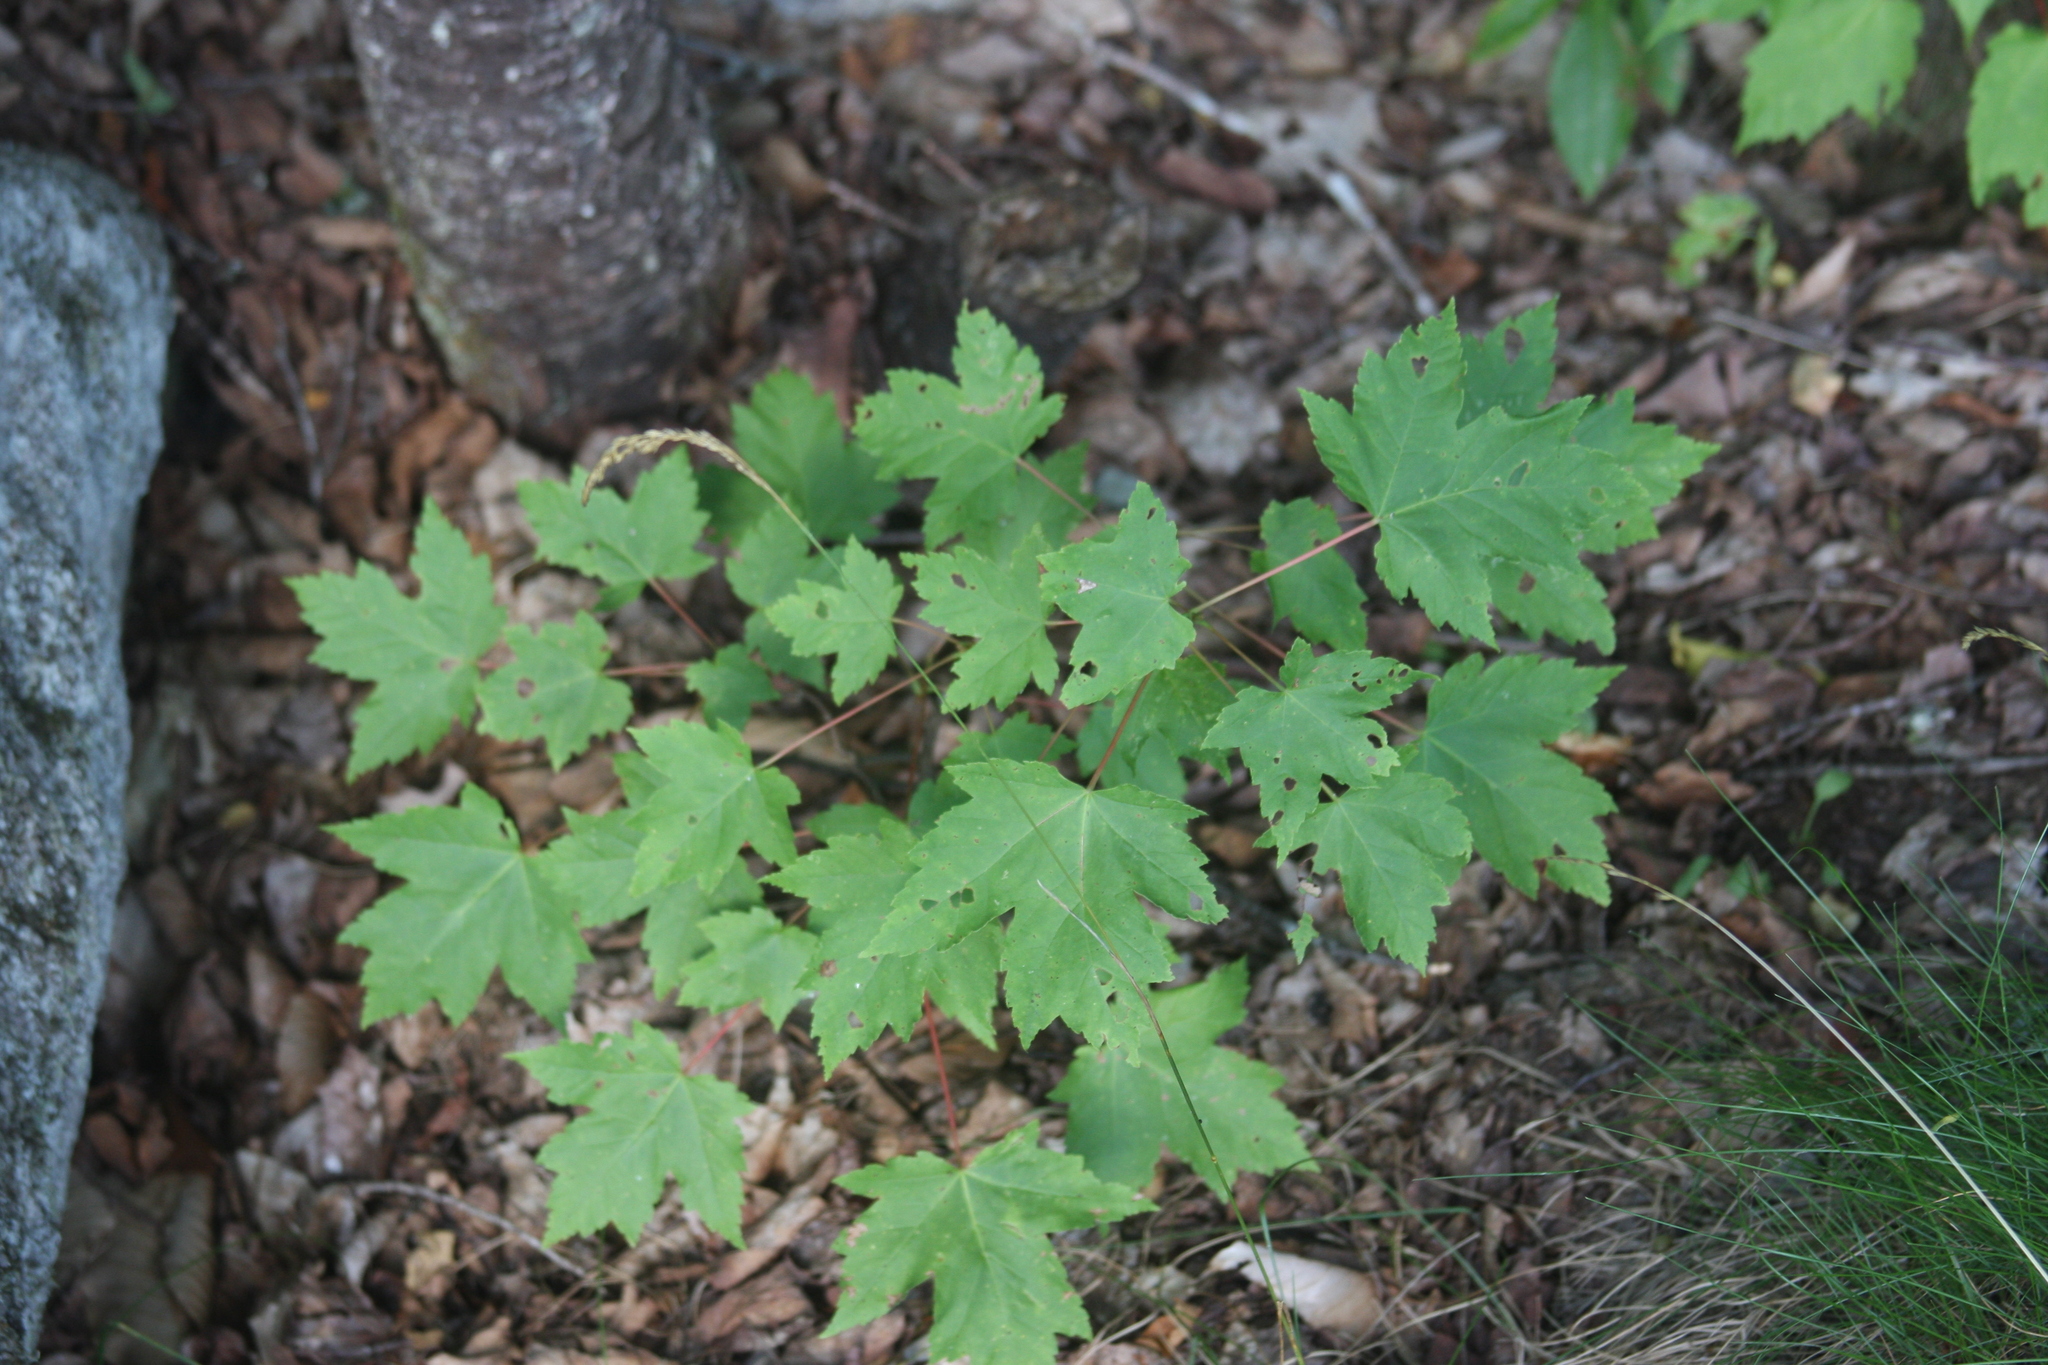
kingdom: Plantae
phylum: Tracheophyta
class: Magnoliopsida
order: Sapindales
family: Sapindaceae
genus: Acer
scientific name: Acer rubrum
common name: Red maple
